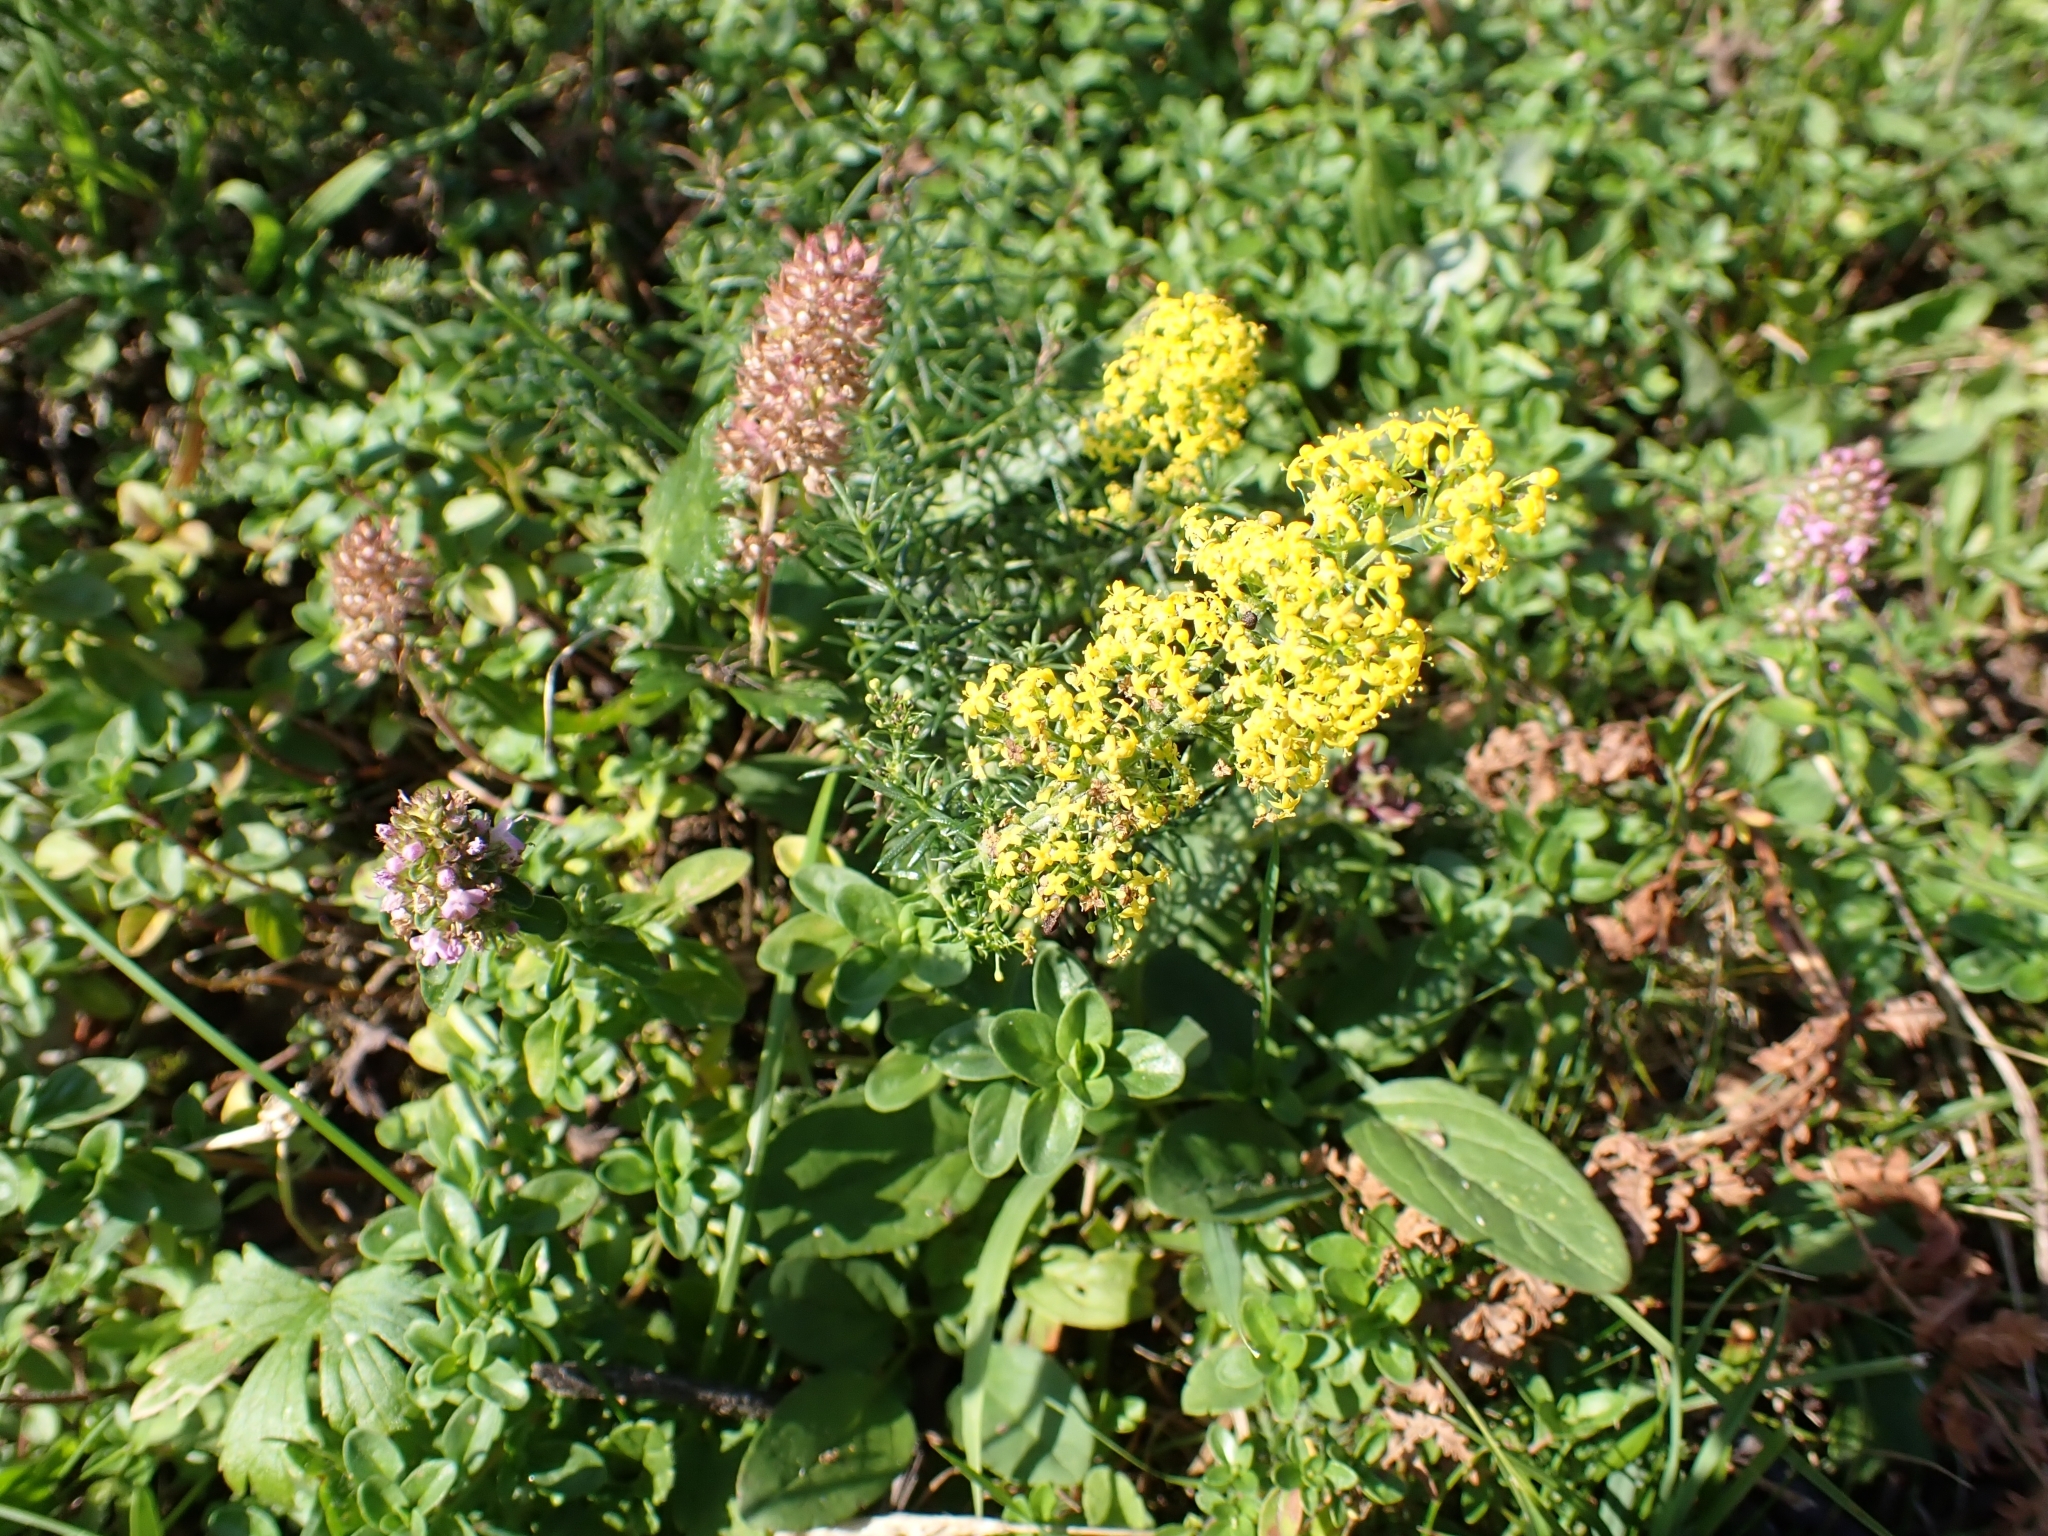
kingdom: Plantae
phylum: Tracheophyta
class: Magnoliopsida
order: Gentianales
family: Rubiaceae
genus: Galium
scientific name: Galium verum
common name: Lady's bedstraw
